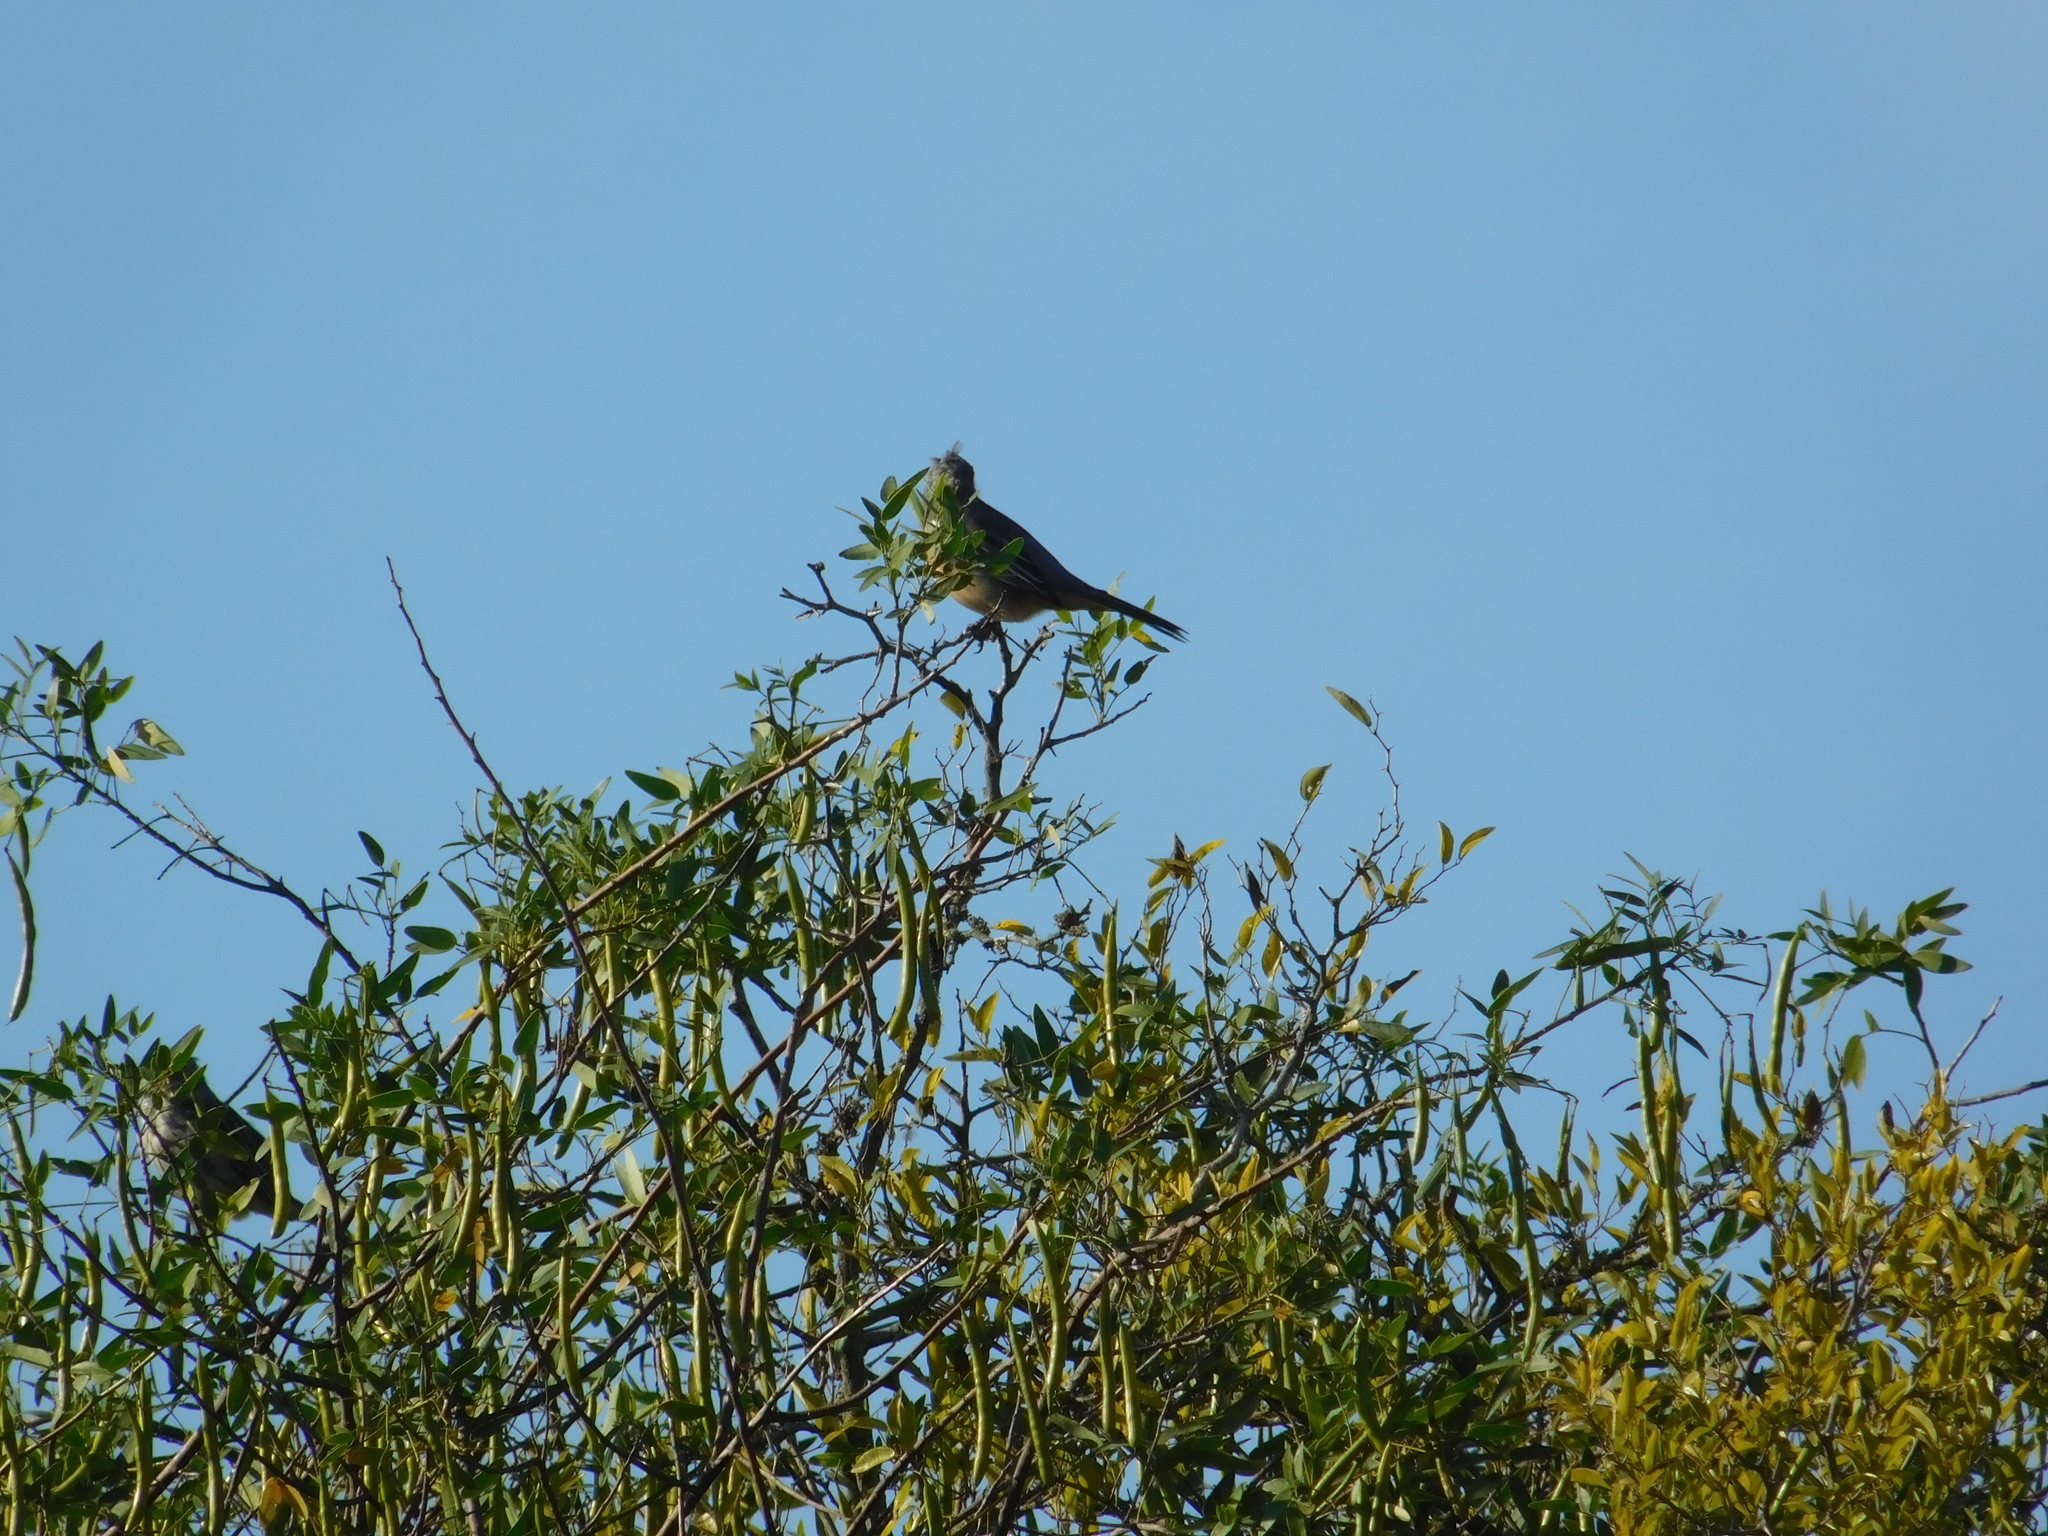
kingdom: Animalia
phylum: Chordata
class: Aves
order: Passeriformes
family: Cotingidae
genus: Phytotoma
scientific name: Phytotoma rutila
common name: White-tipped plantcutter
